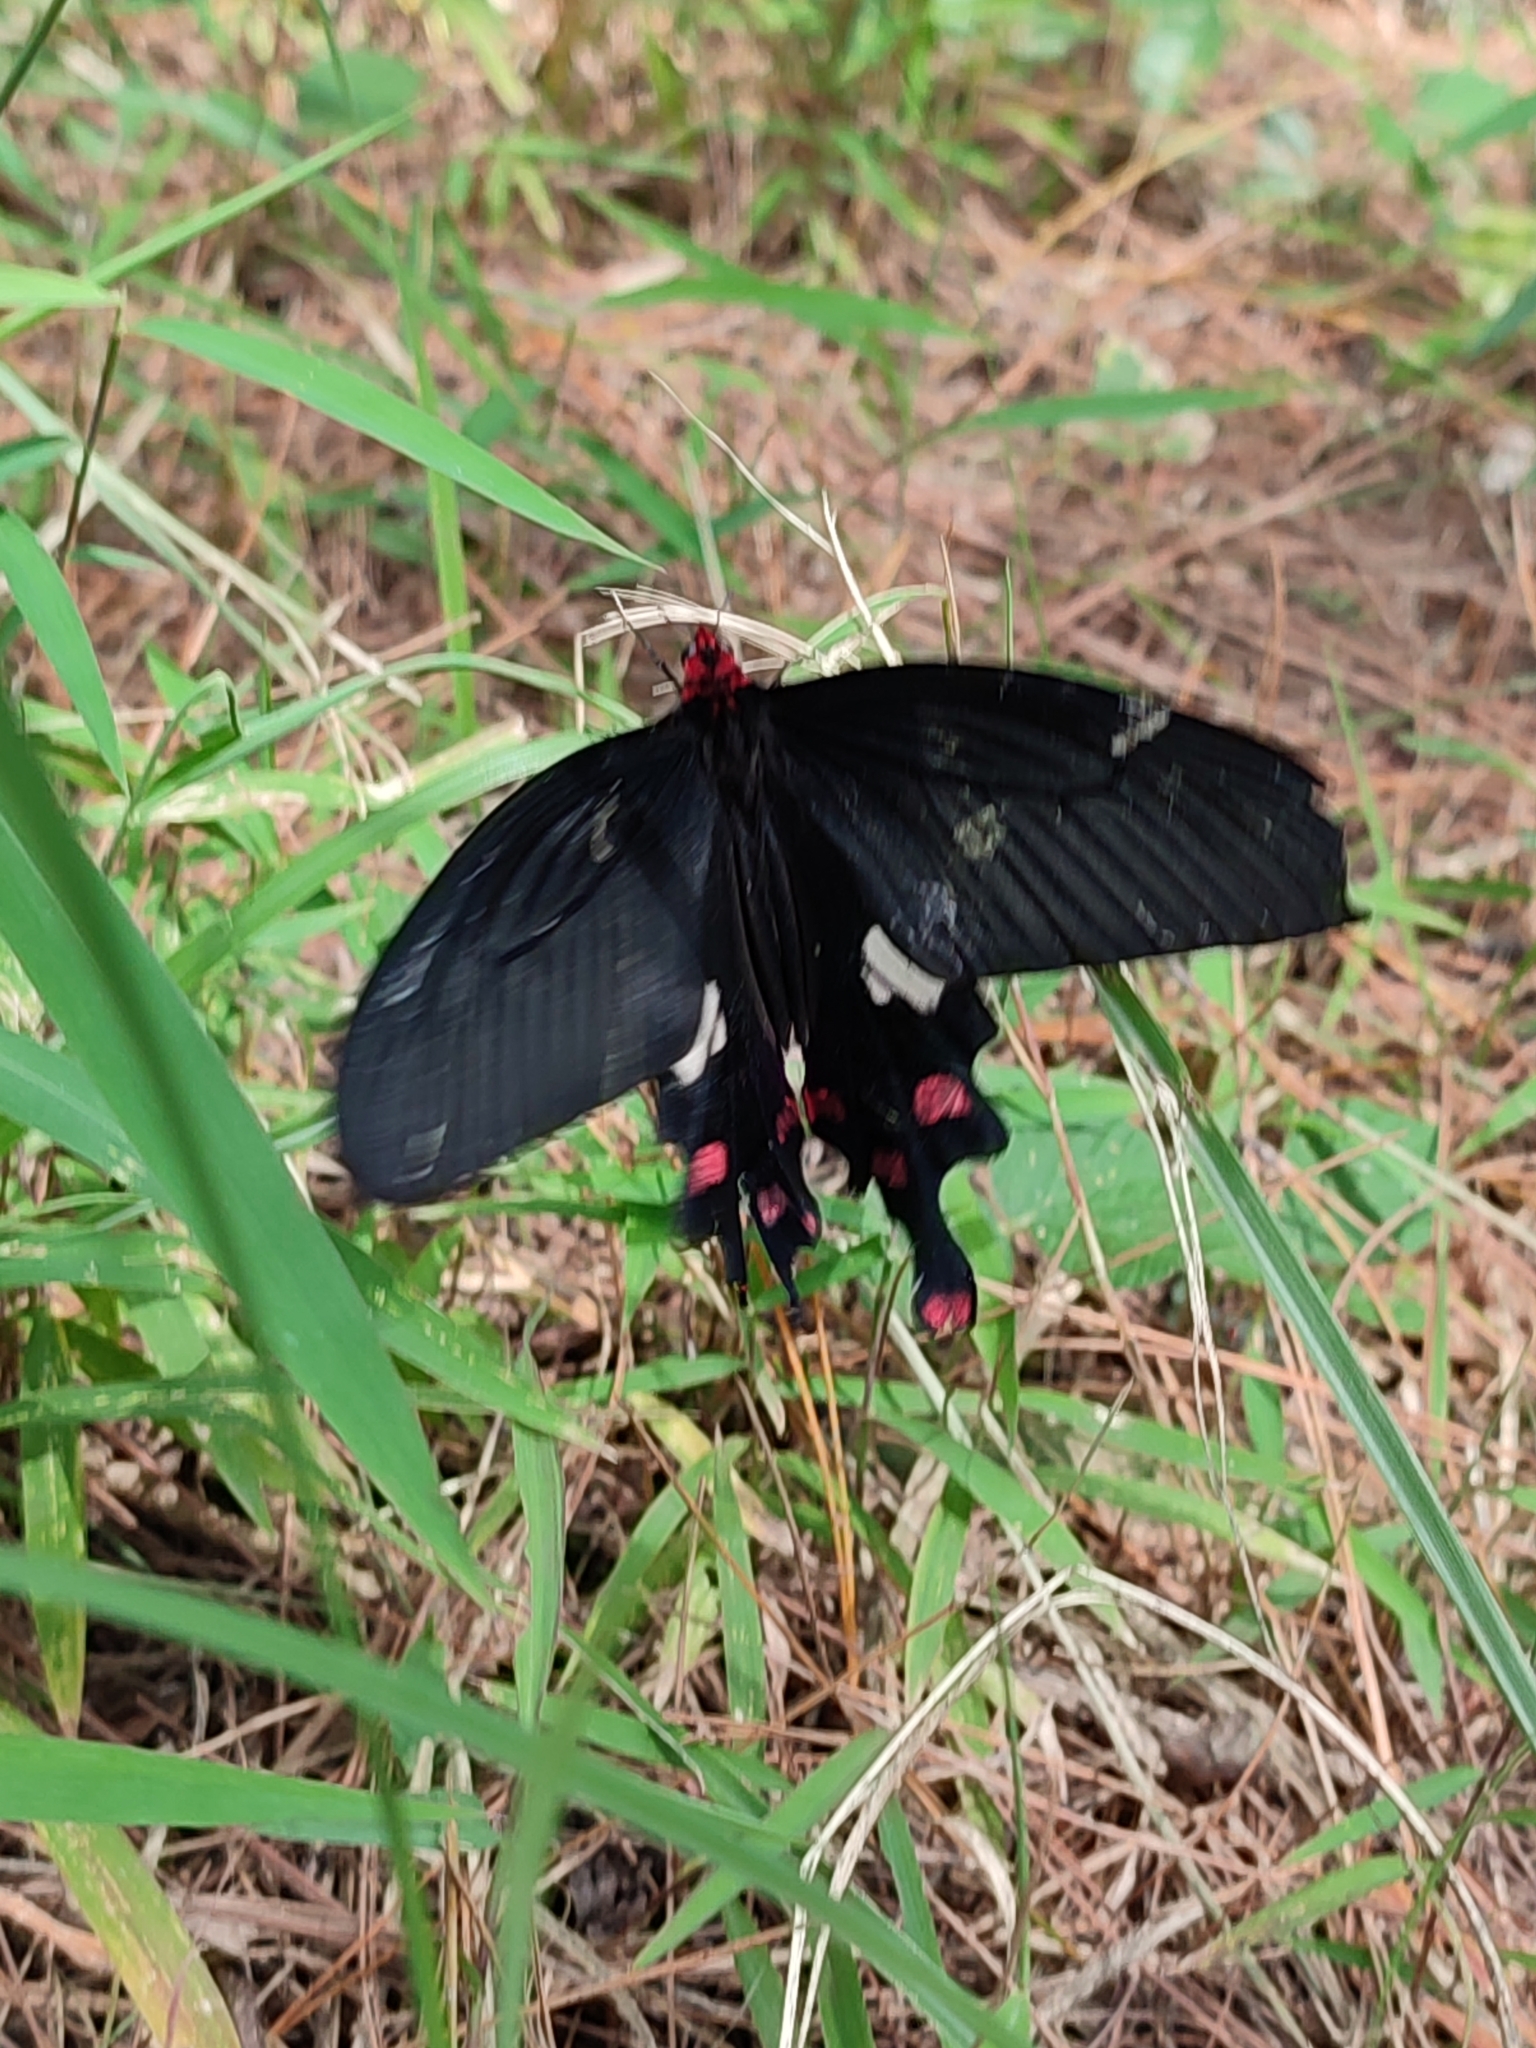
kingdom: Animalia
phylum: Arthropoda
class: Insecta
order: Lepidoptera
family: Papilionidae
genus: Byasa
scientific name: Byasa polyeuctes
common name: Common windmill
